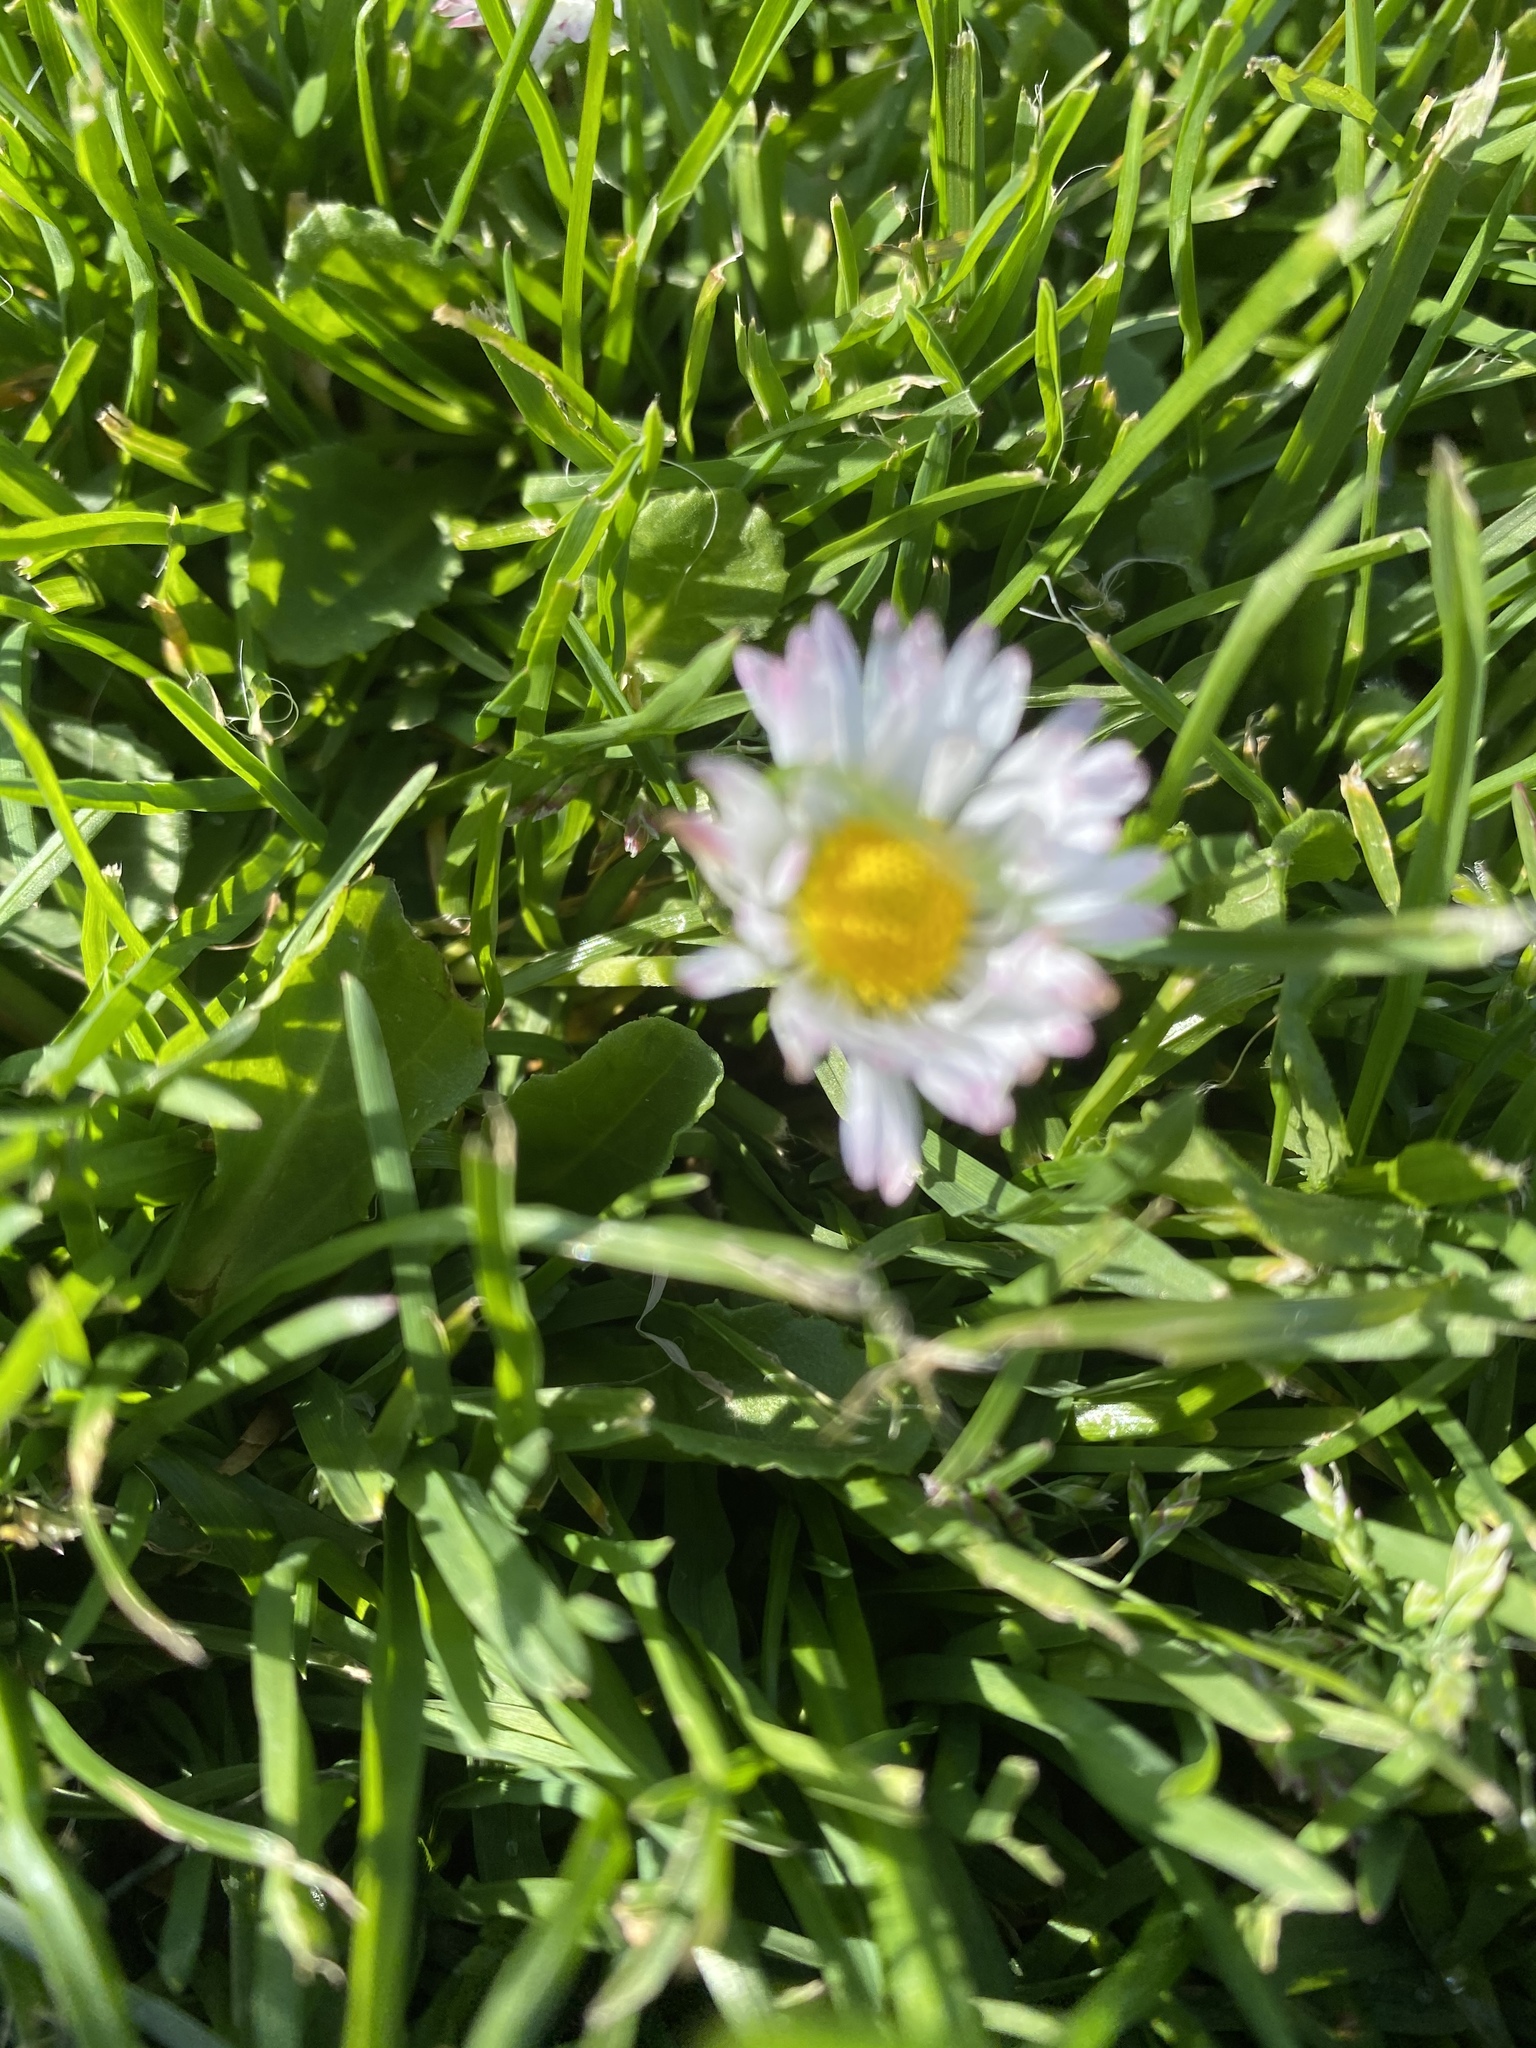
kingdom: Plantae
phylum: Tracheophyta
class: Magnoliopsida
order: Asterales
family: Asteraceae
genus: Bellis
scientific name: Bellis perennis
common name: Lawndaisy
